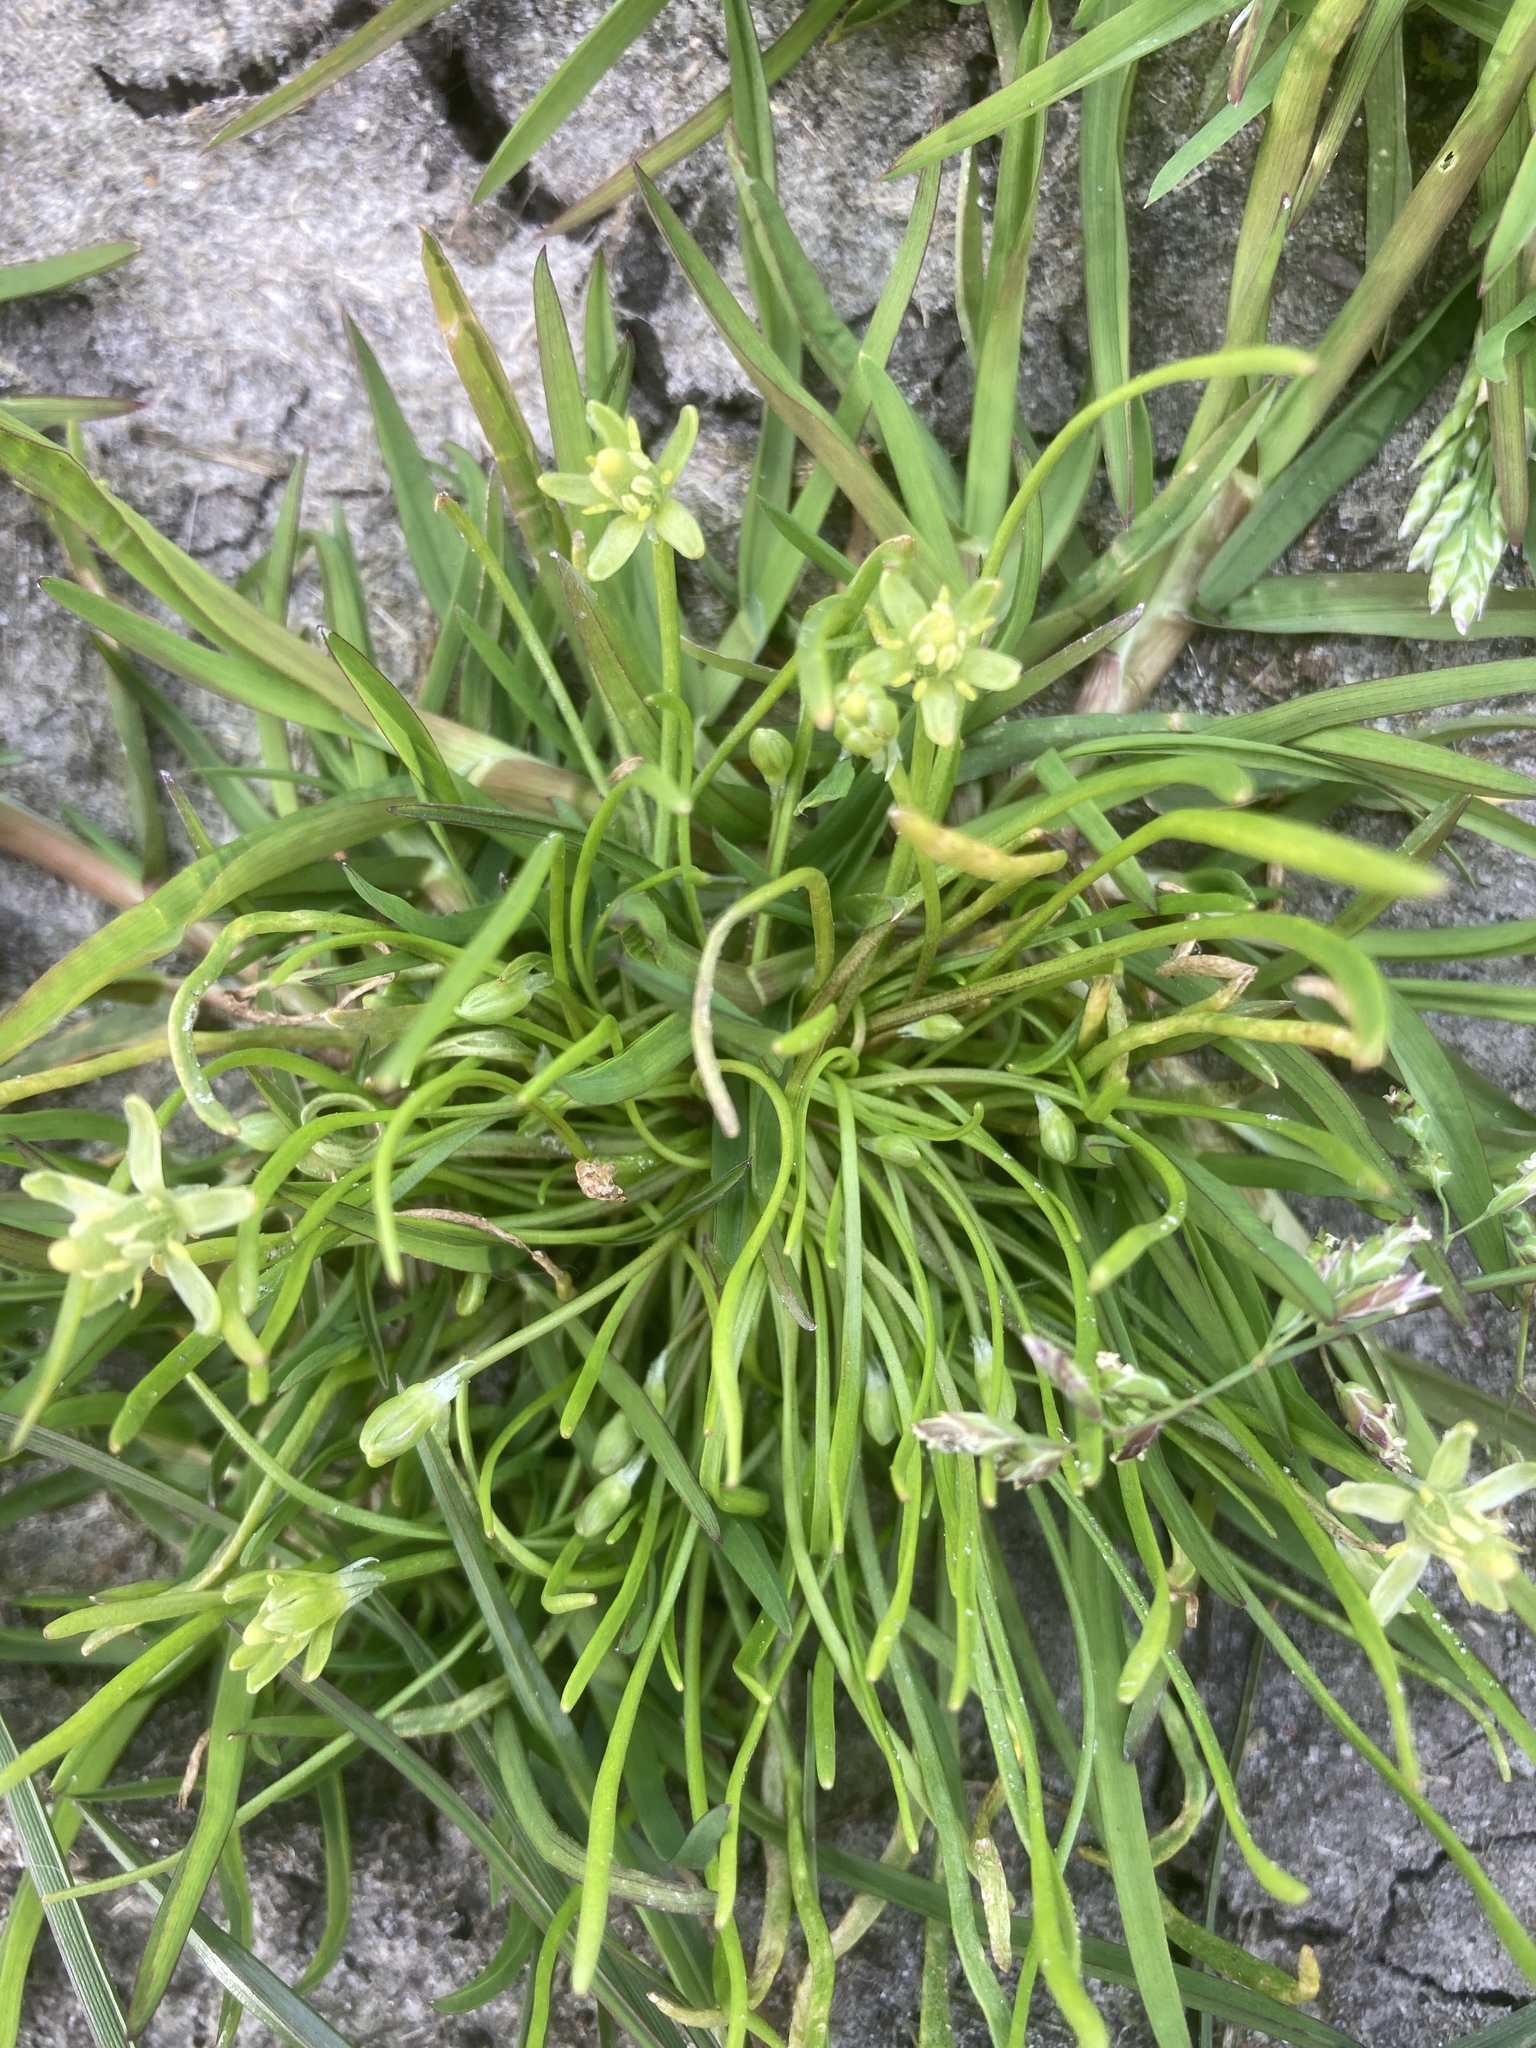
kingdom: Plantae
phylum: Tracheophyta
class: Magnoliopsida
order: Ranunculales
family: Ranunculaceae
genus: Myosurus
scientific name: Myosurus minimus
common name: Mousetail
